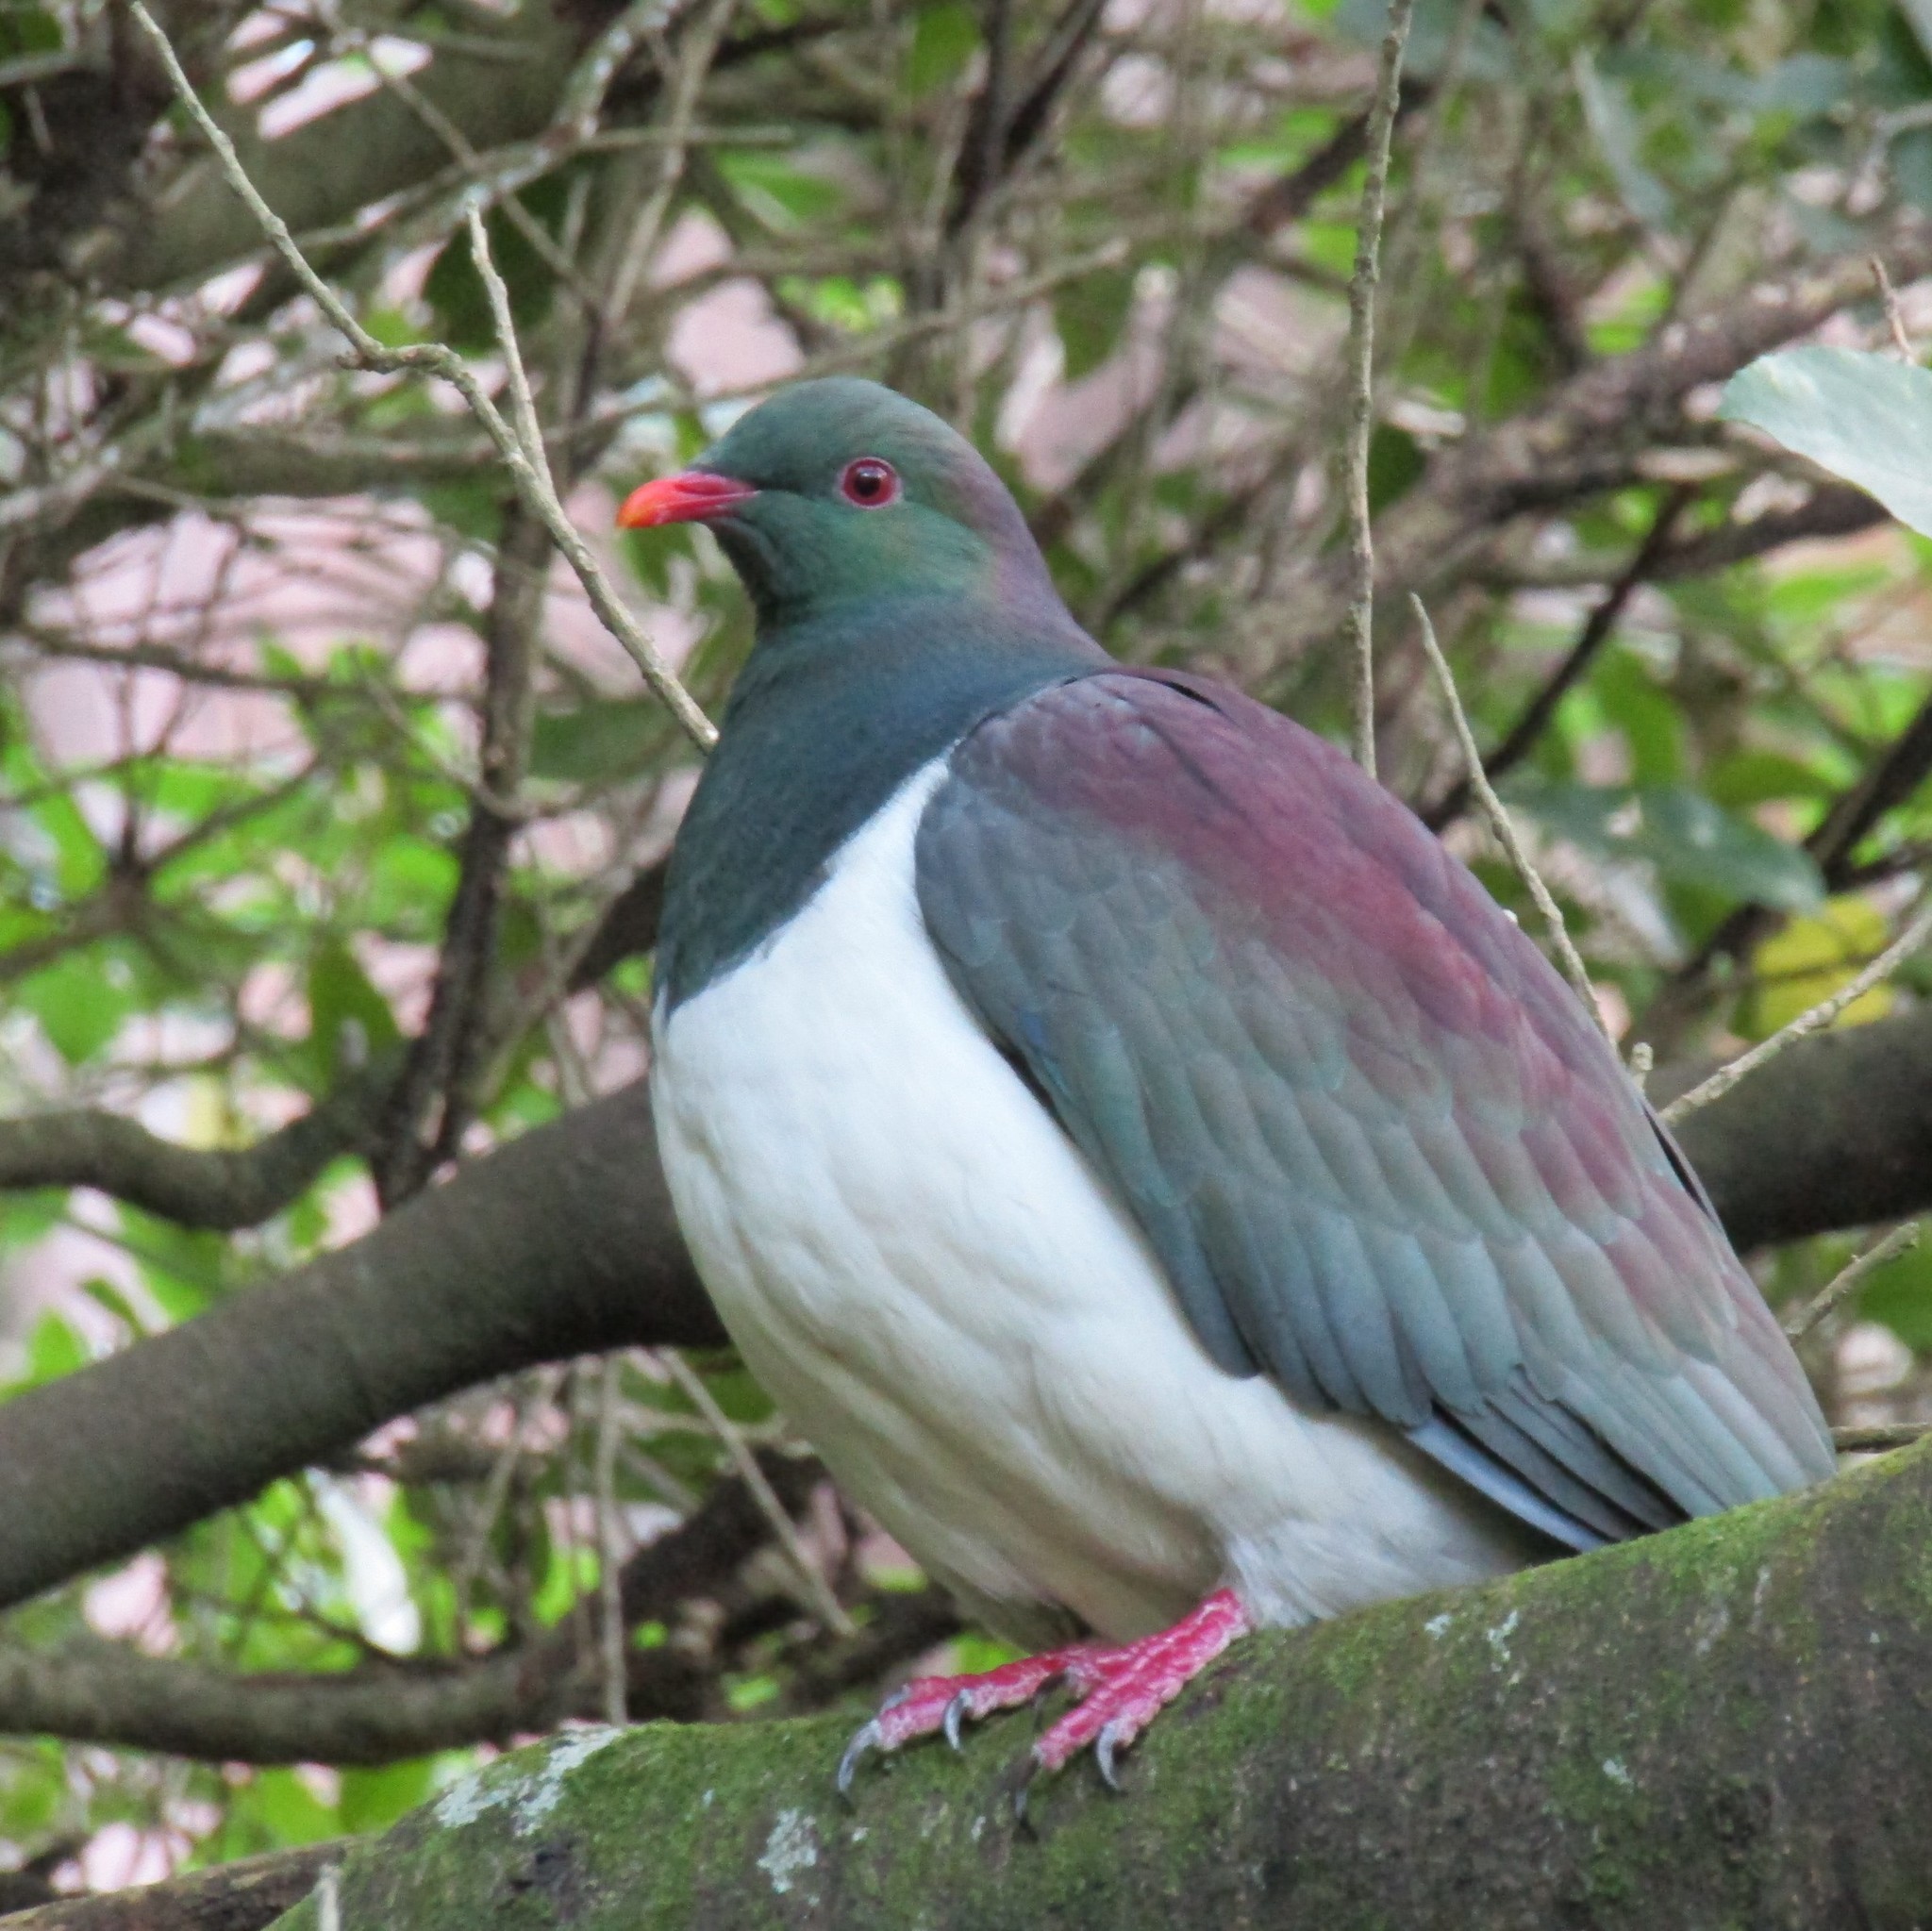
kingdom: Animalia
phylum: Chordata
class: Aves
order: Columbiformes
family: Columbidae
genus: Hemiphaga
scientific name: Hemiphaga novaeseelandiae
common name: New zealand pigeon
